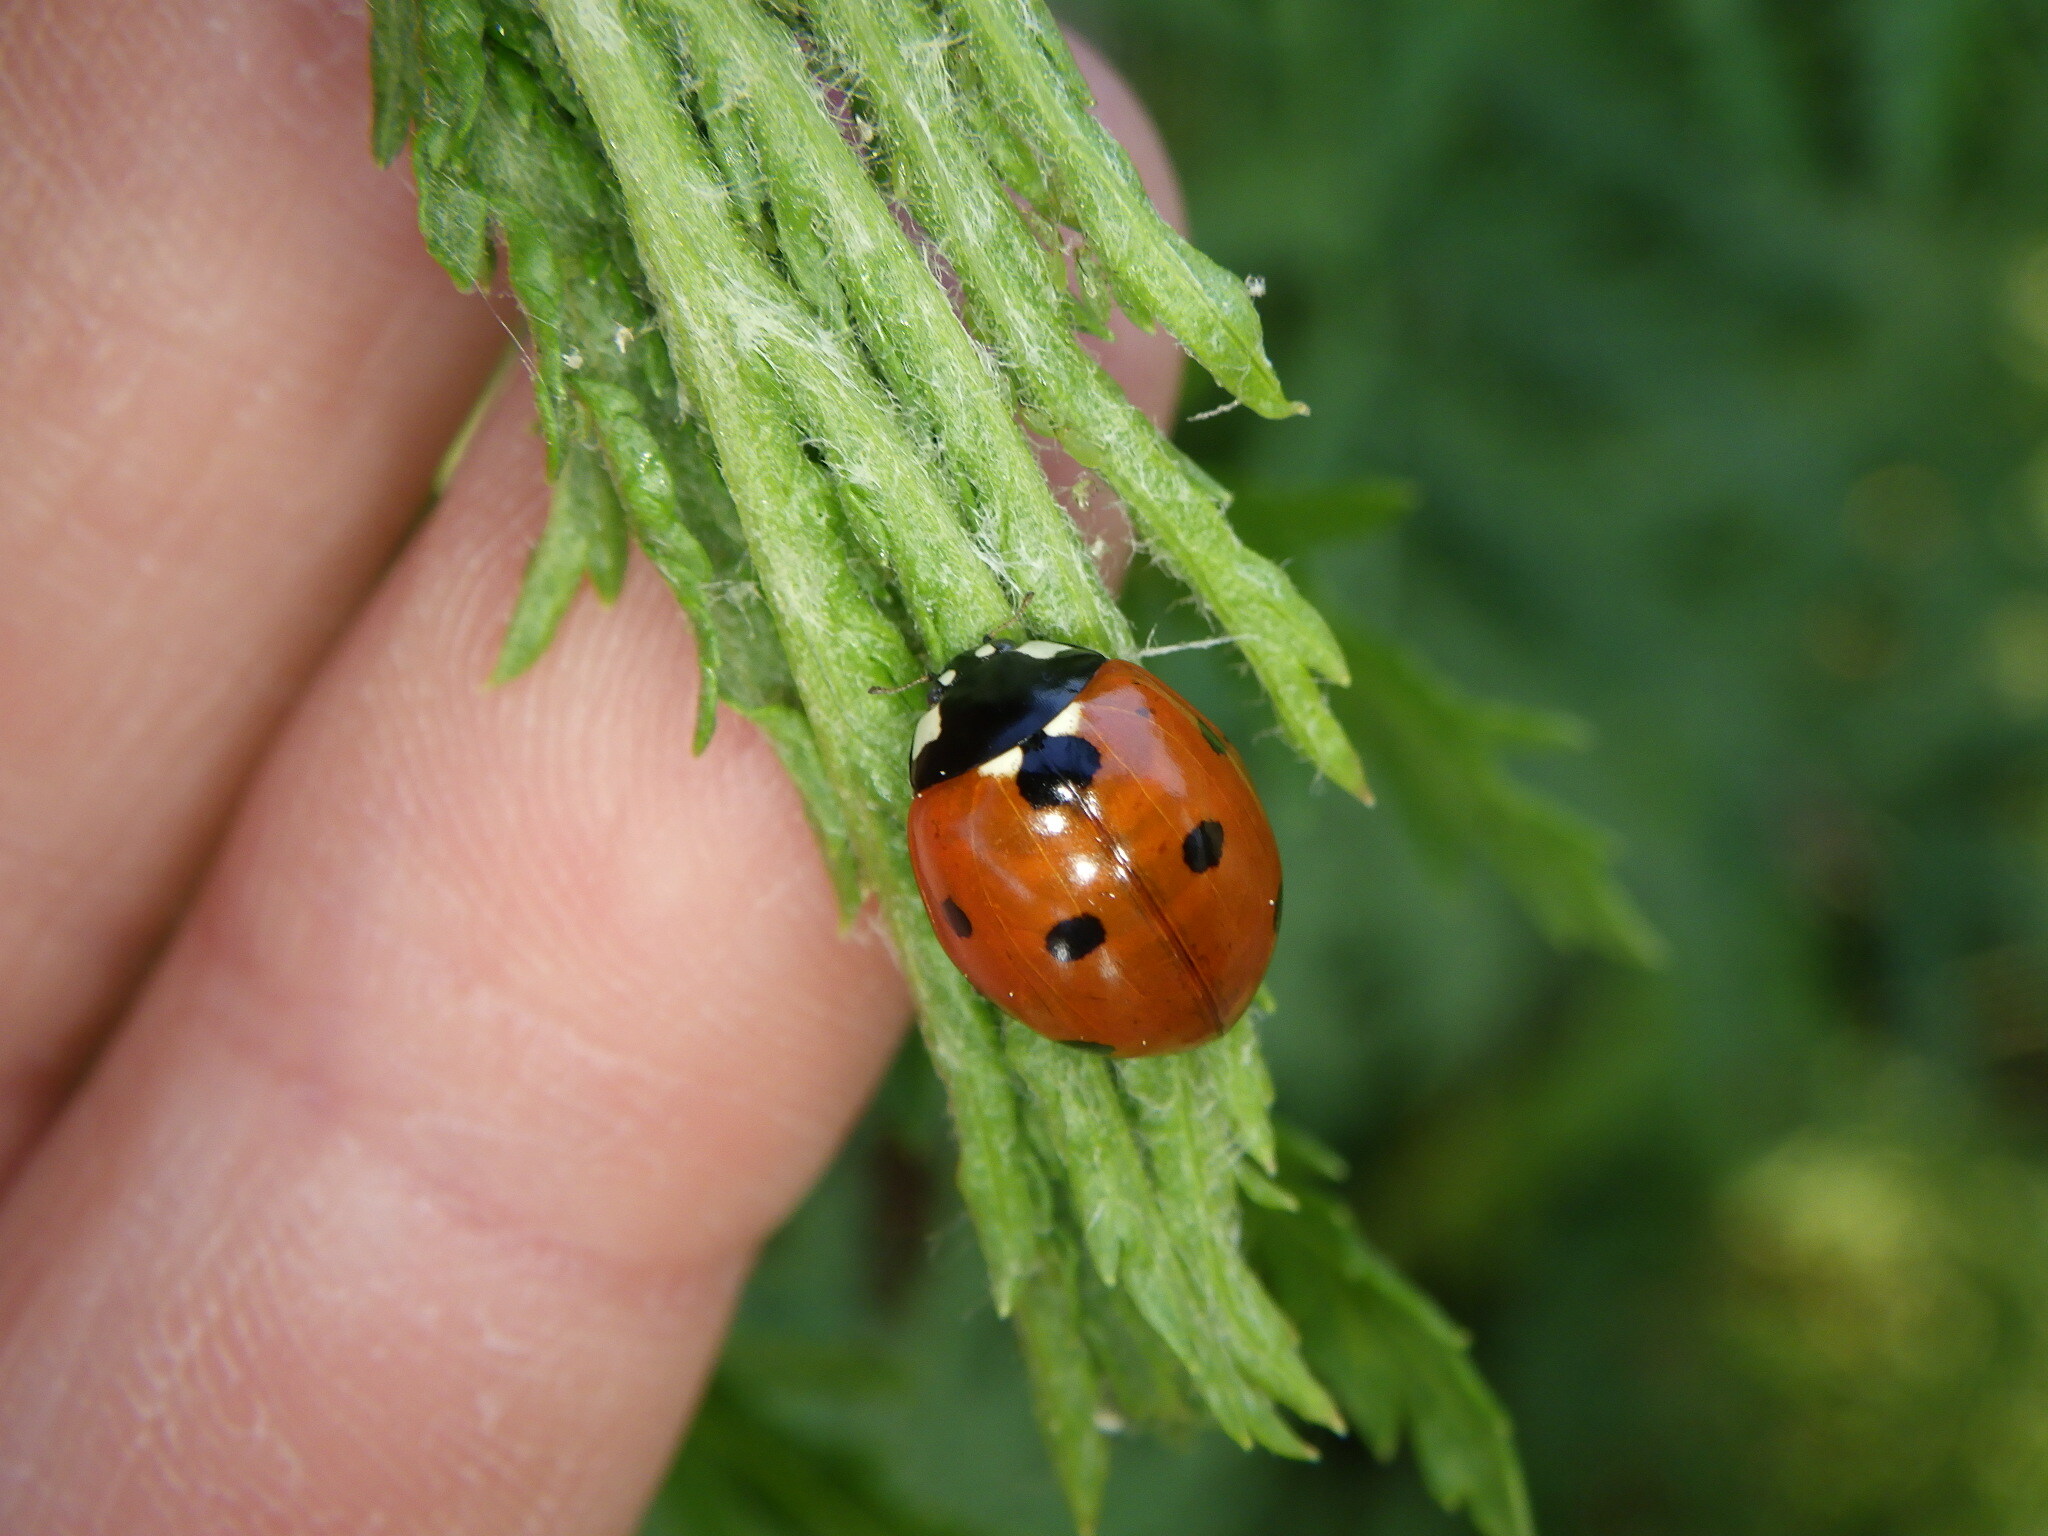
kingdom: Animalia
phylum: Arthropoda
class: Insecta
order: Coleoptera
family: Coccinellidae
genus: Coccinella
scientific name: Coccinella septempunctata
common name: Sevenspotted lady beetle
